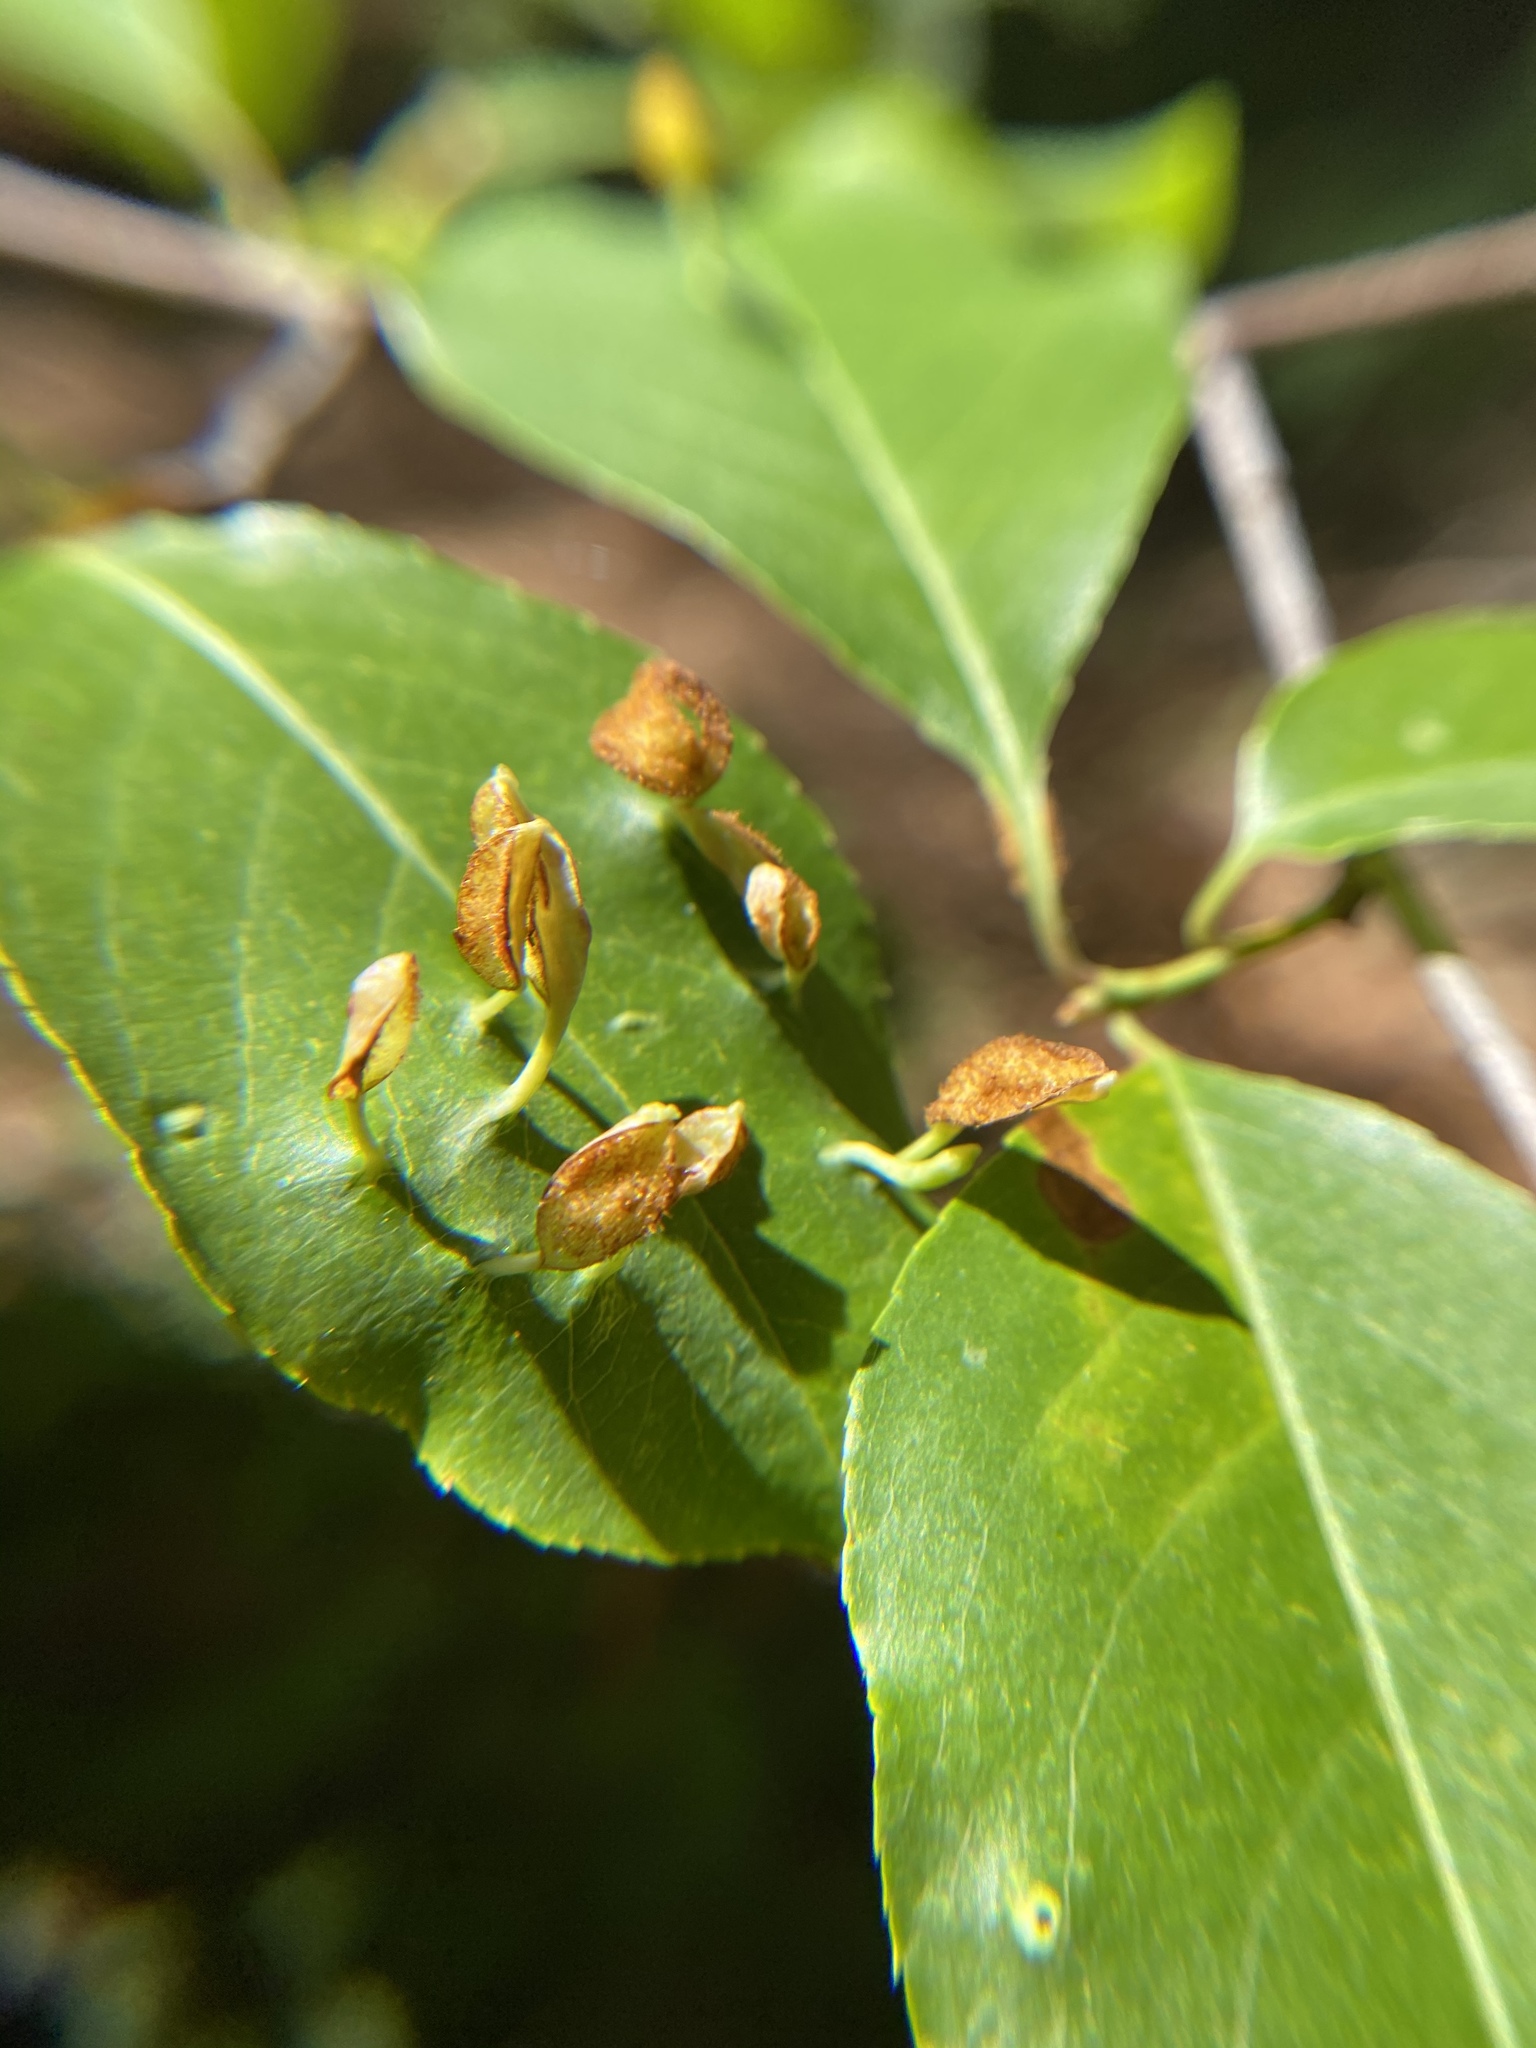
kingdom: Animalia
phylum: Arthropoda
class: Arachnida
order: Trombidiformes
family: Eriophyidae
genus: Eriophyes
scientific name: Eriophyes
